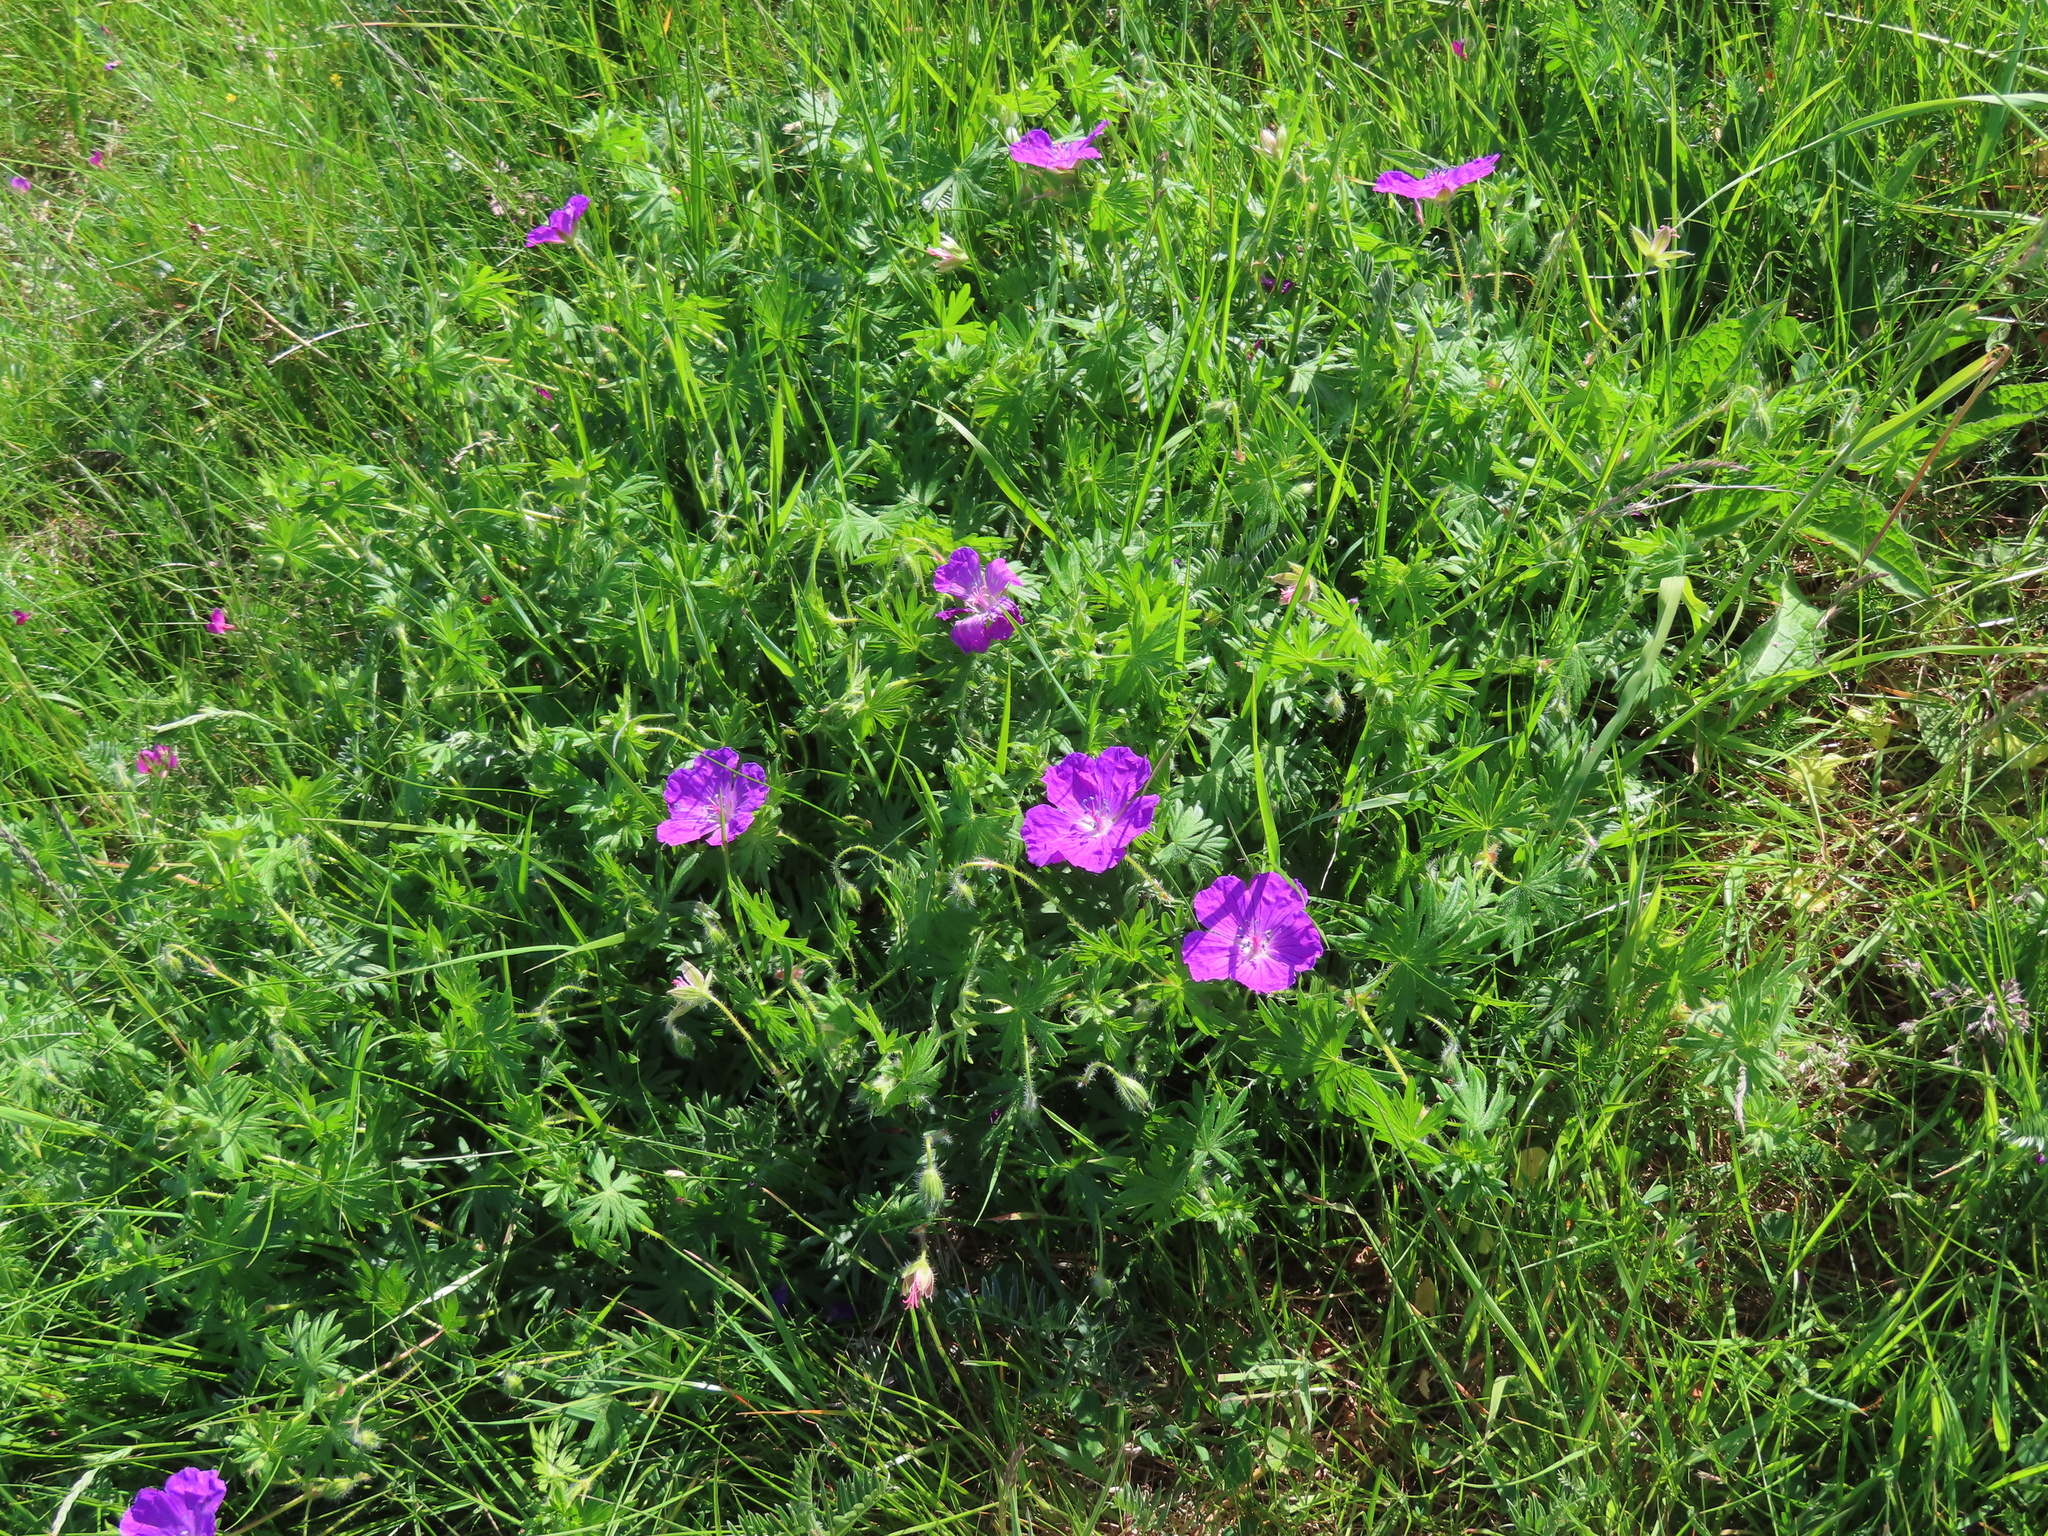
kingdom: Plantae
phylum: Tracheophyta
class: Magnoliopsida
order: Geraniales
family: Geraniaceae
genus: Geranium
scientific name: Geranium sanguineum
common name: Bloody crane's-bill
